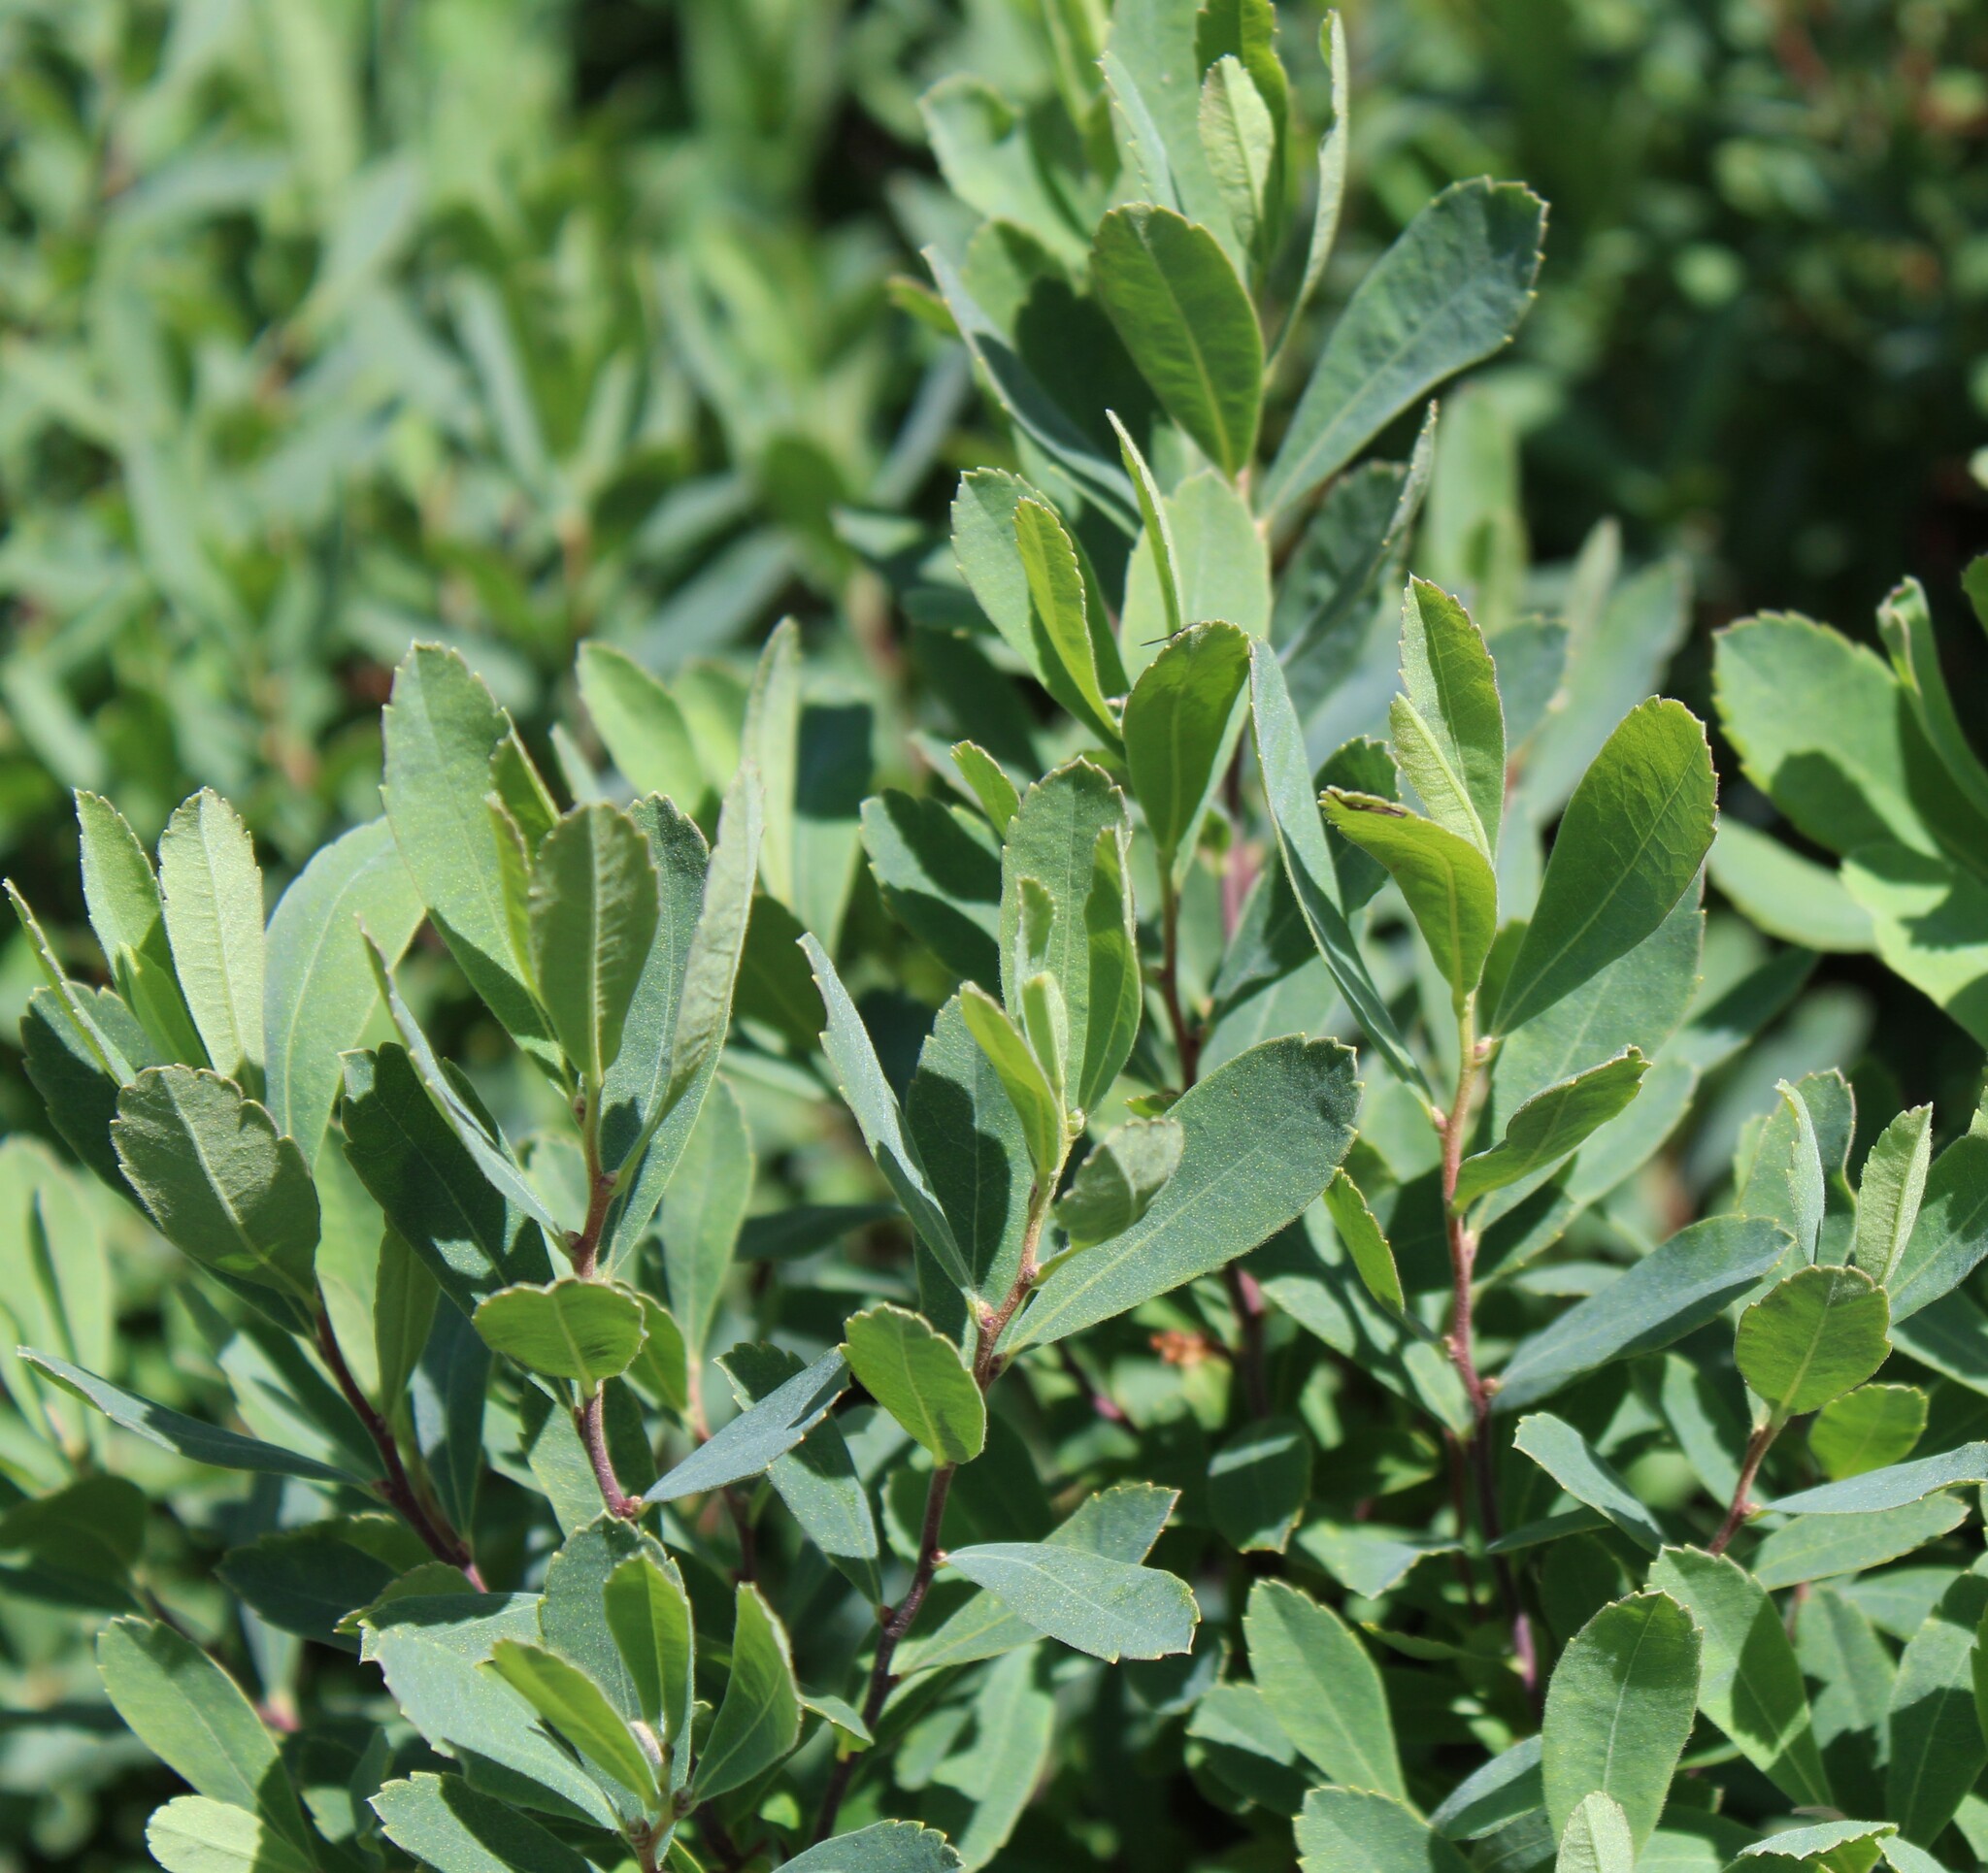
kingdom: Plantae
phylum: Tracheophyta
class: Magnoliopsida
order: Fagales
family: Myricaceae
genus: Myrica
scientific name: Myrica gale
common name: Sweet gale
